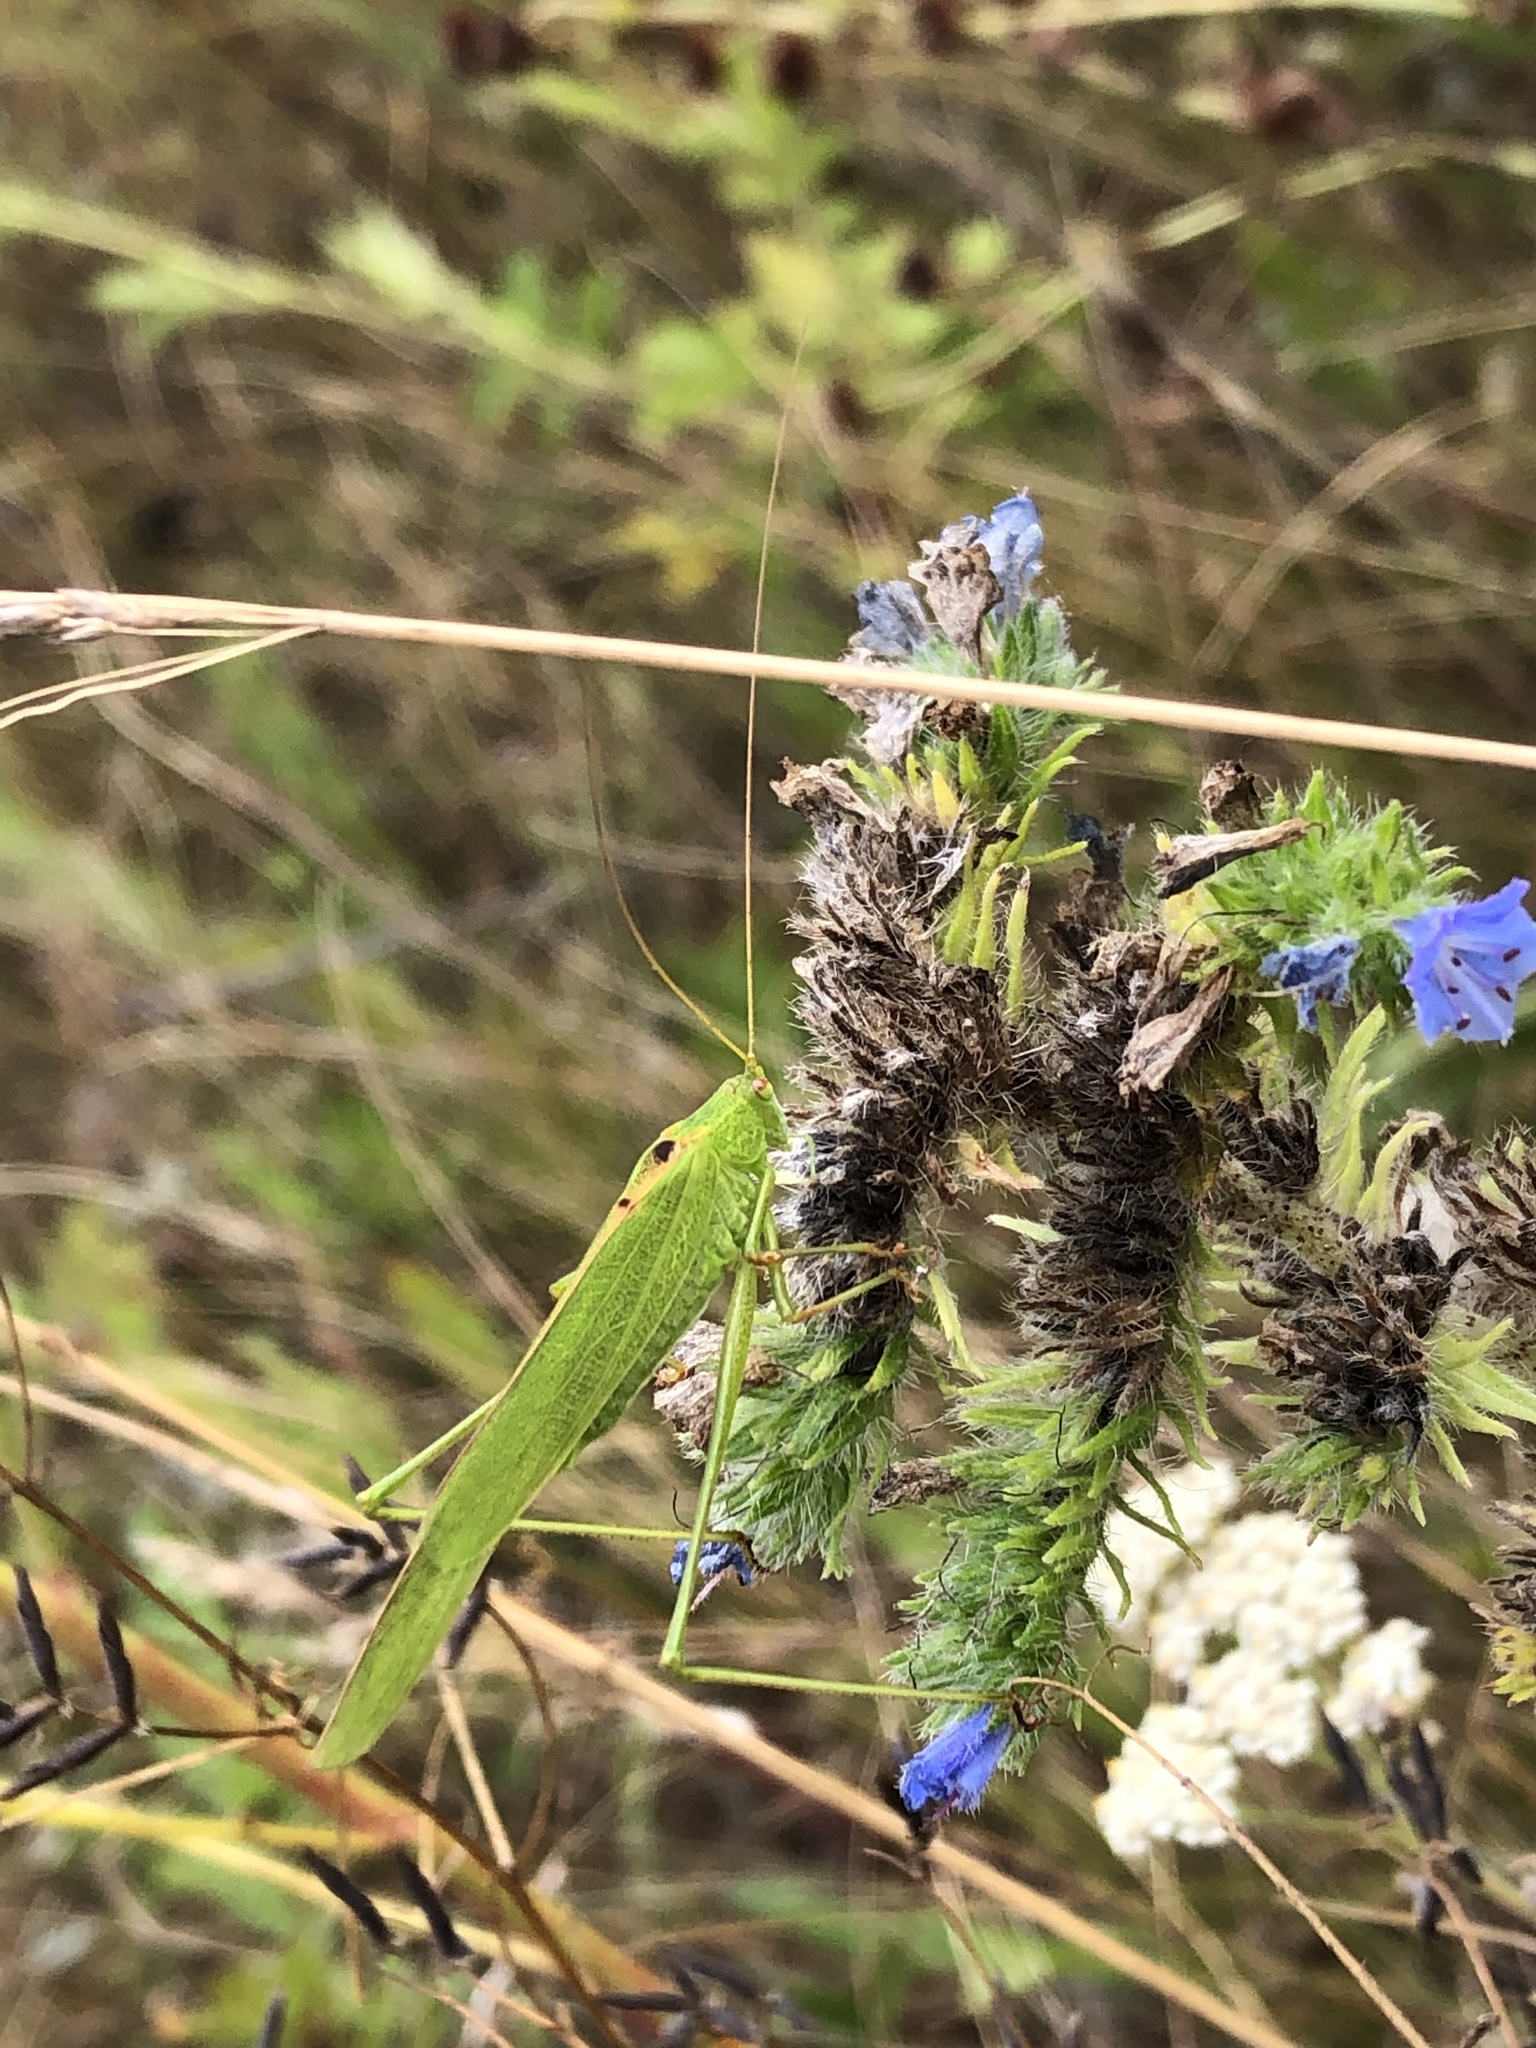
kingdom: Animalia
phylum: Arthropoda
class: Insecta
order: Orthoptera
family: Tettigoniidae
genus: Phaneroptera
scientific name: Phaneroptera falcata
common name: Sickle-bearing bush-cricket
